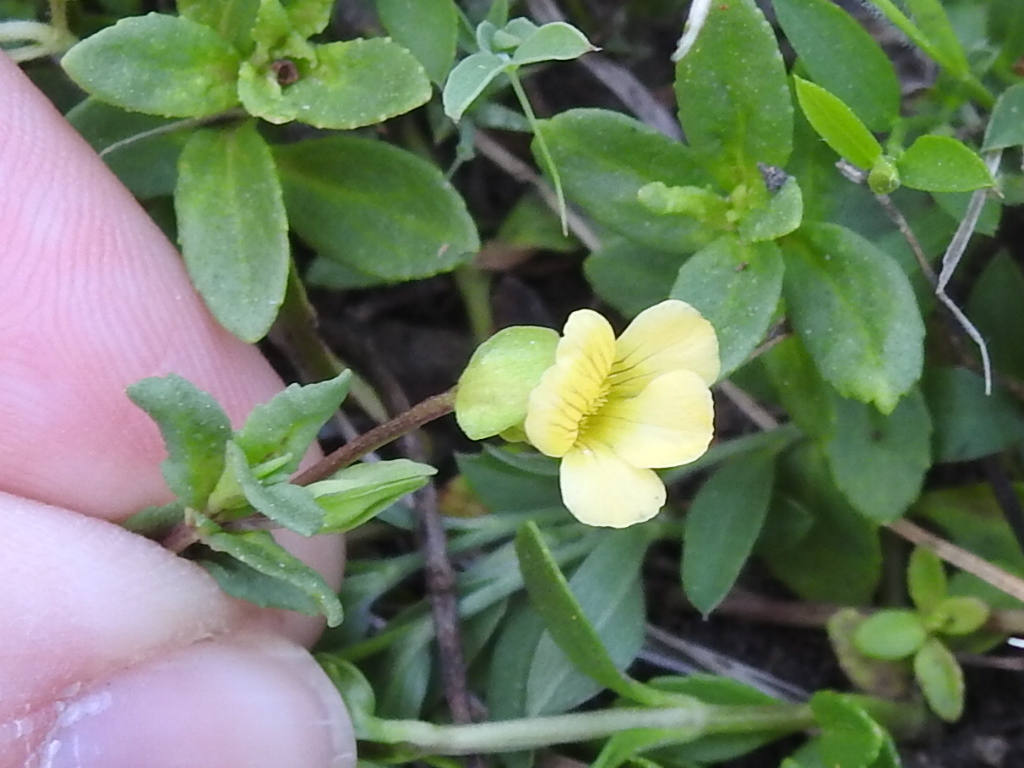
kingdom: Plantae
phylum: Tracheophyta
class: Magnoliopsida
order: Lamiales
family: Plantaginaceae
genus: Mecardonia
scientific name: Mecardonia procumbens
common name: Baby jump-up
